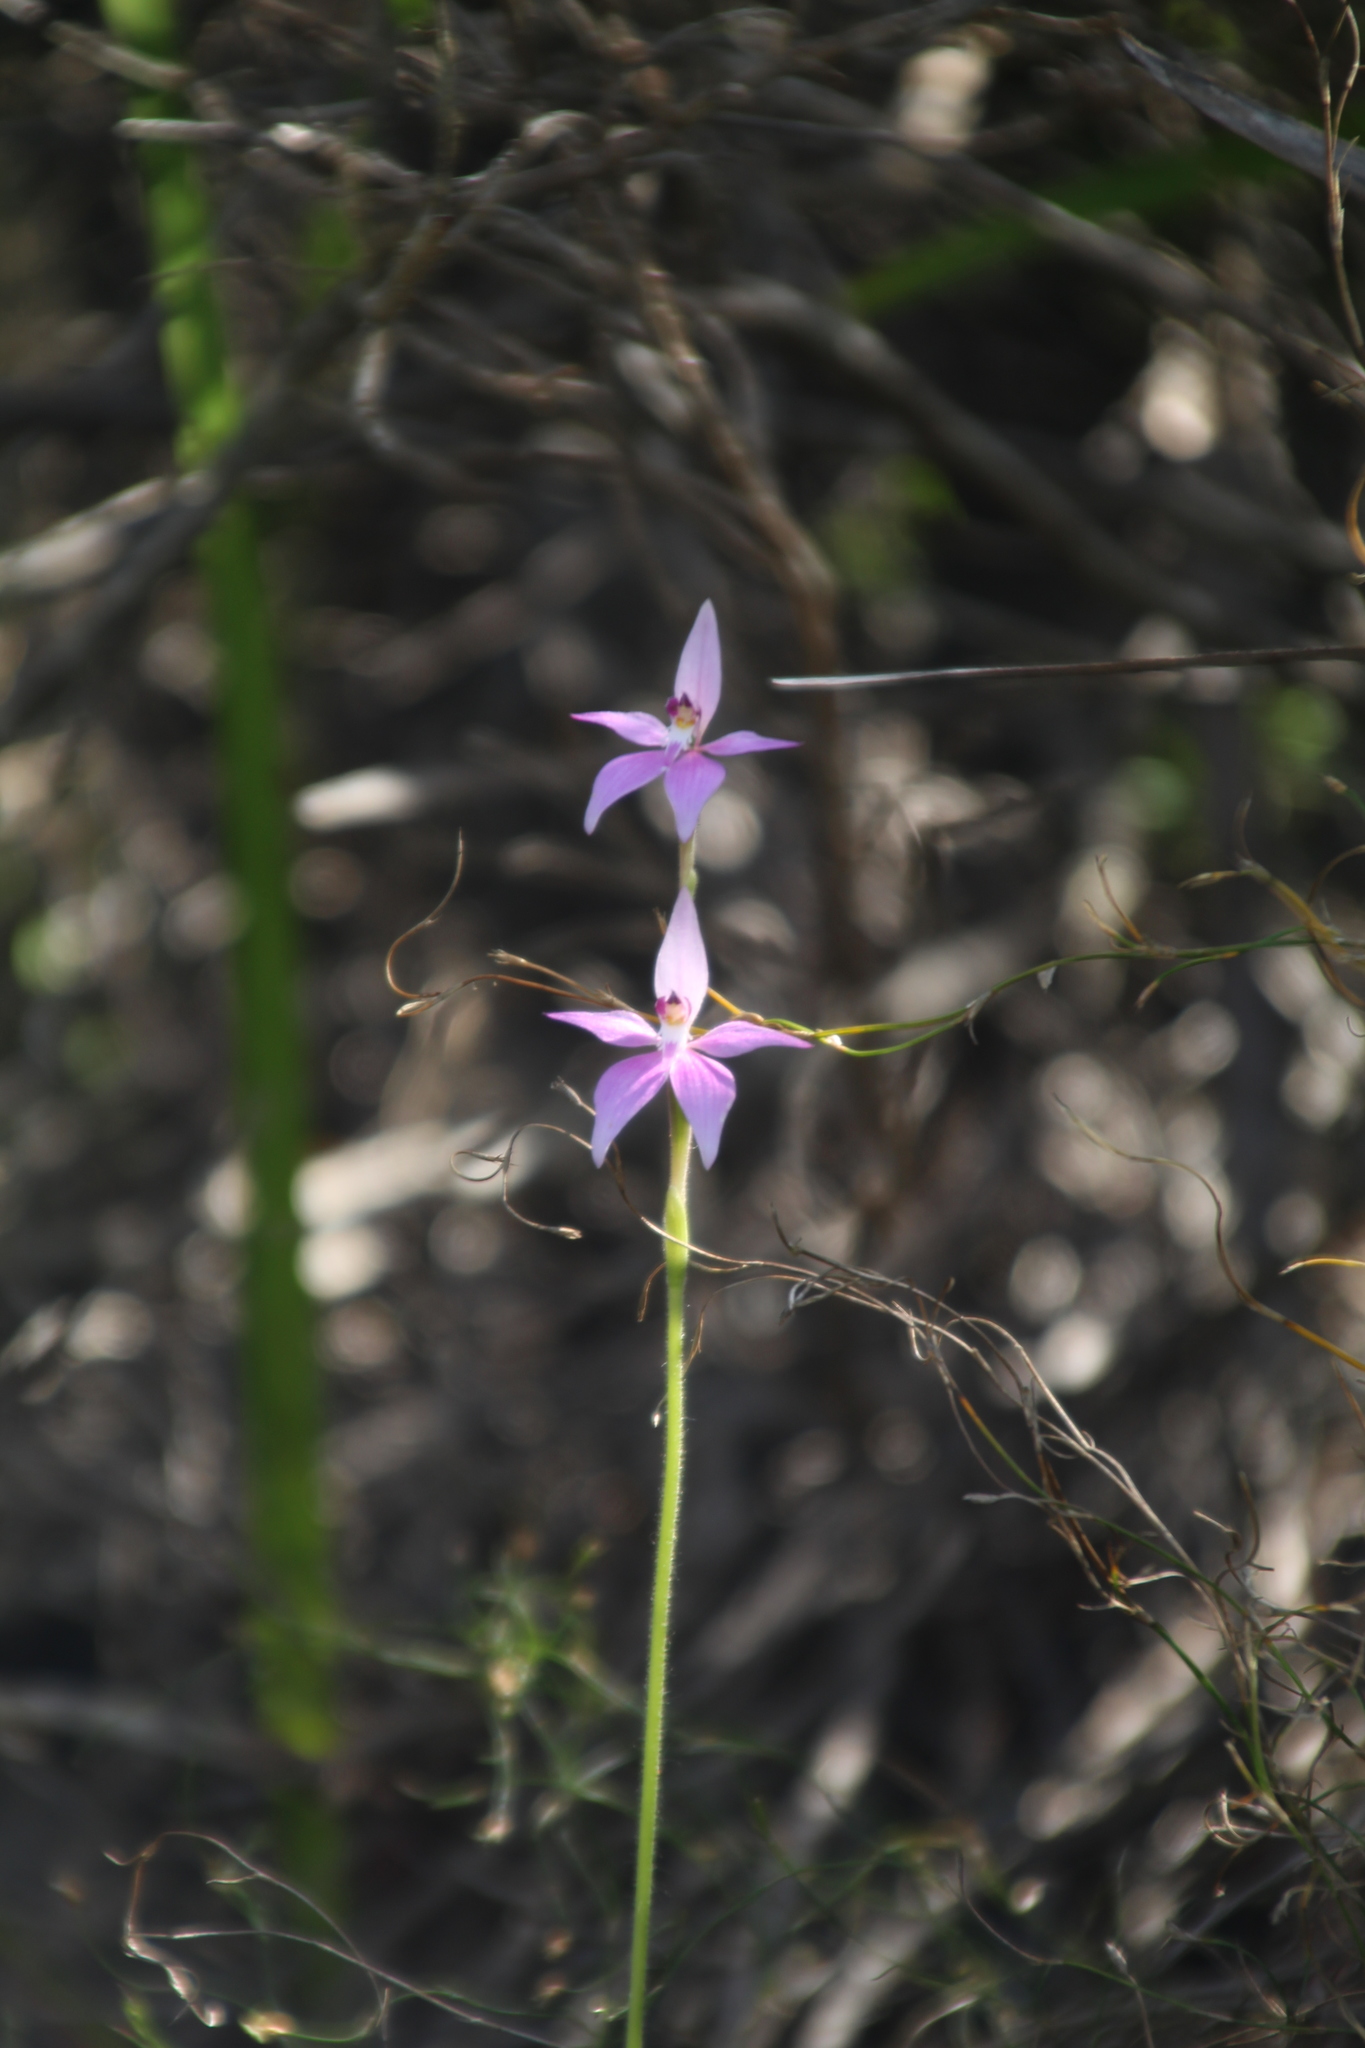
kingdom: Plantae
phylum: Tracheophyta
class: Liliopsida
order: Asparagales
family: Orchidaceae
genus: Caladenia
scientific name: Caladenia latifolia
